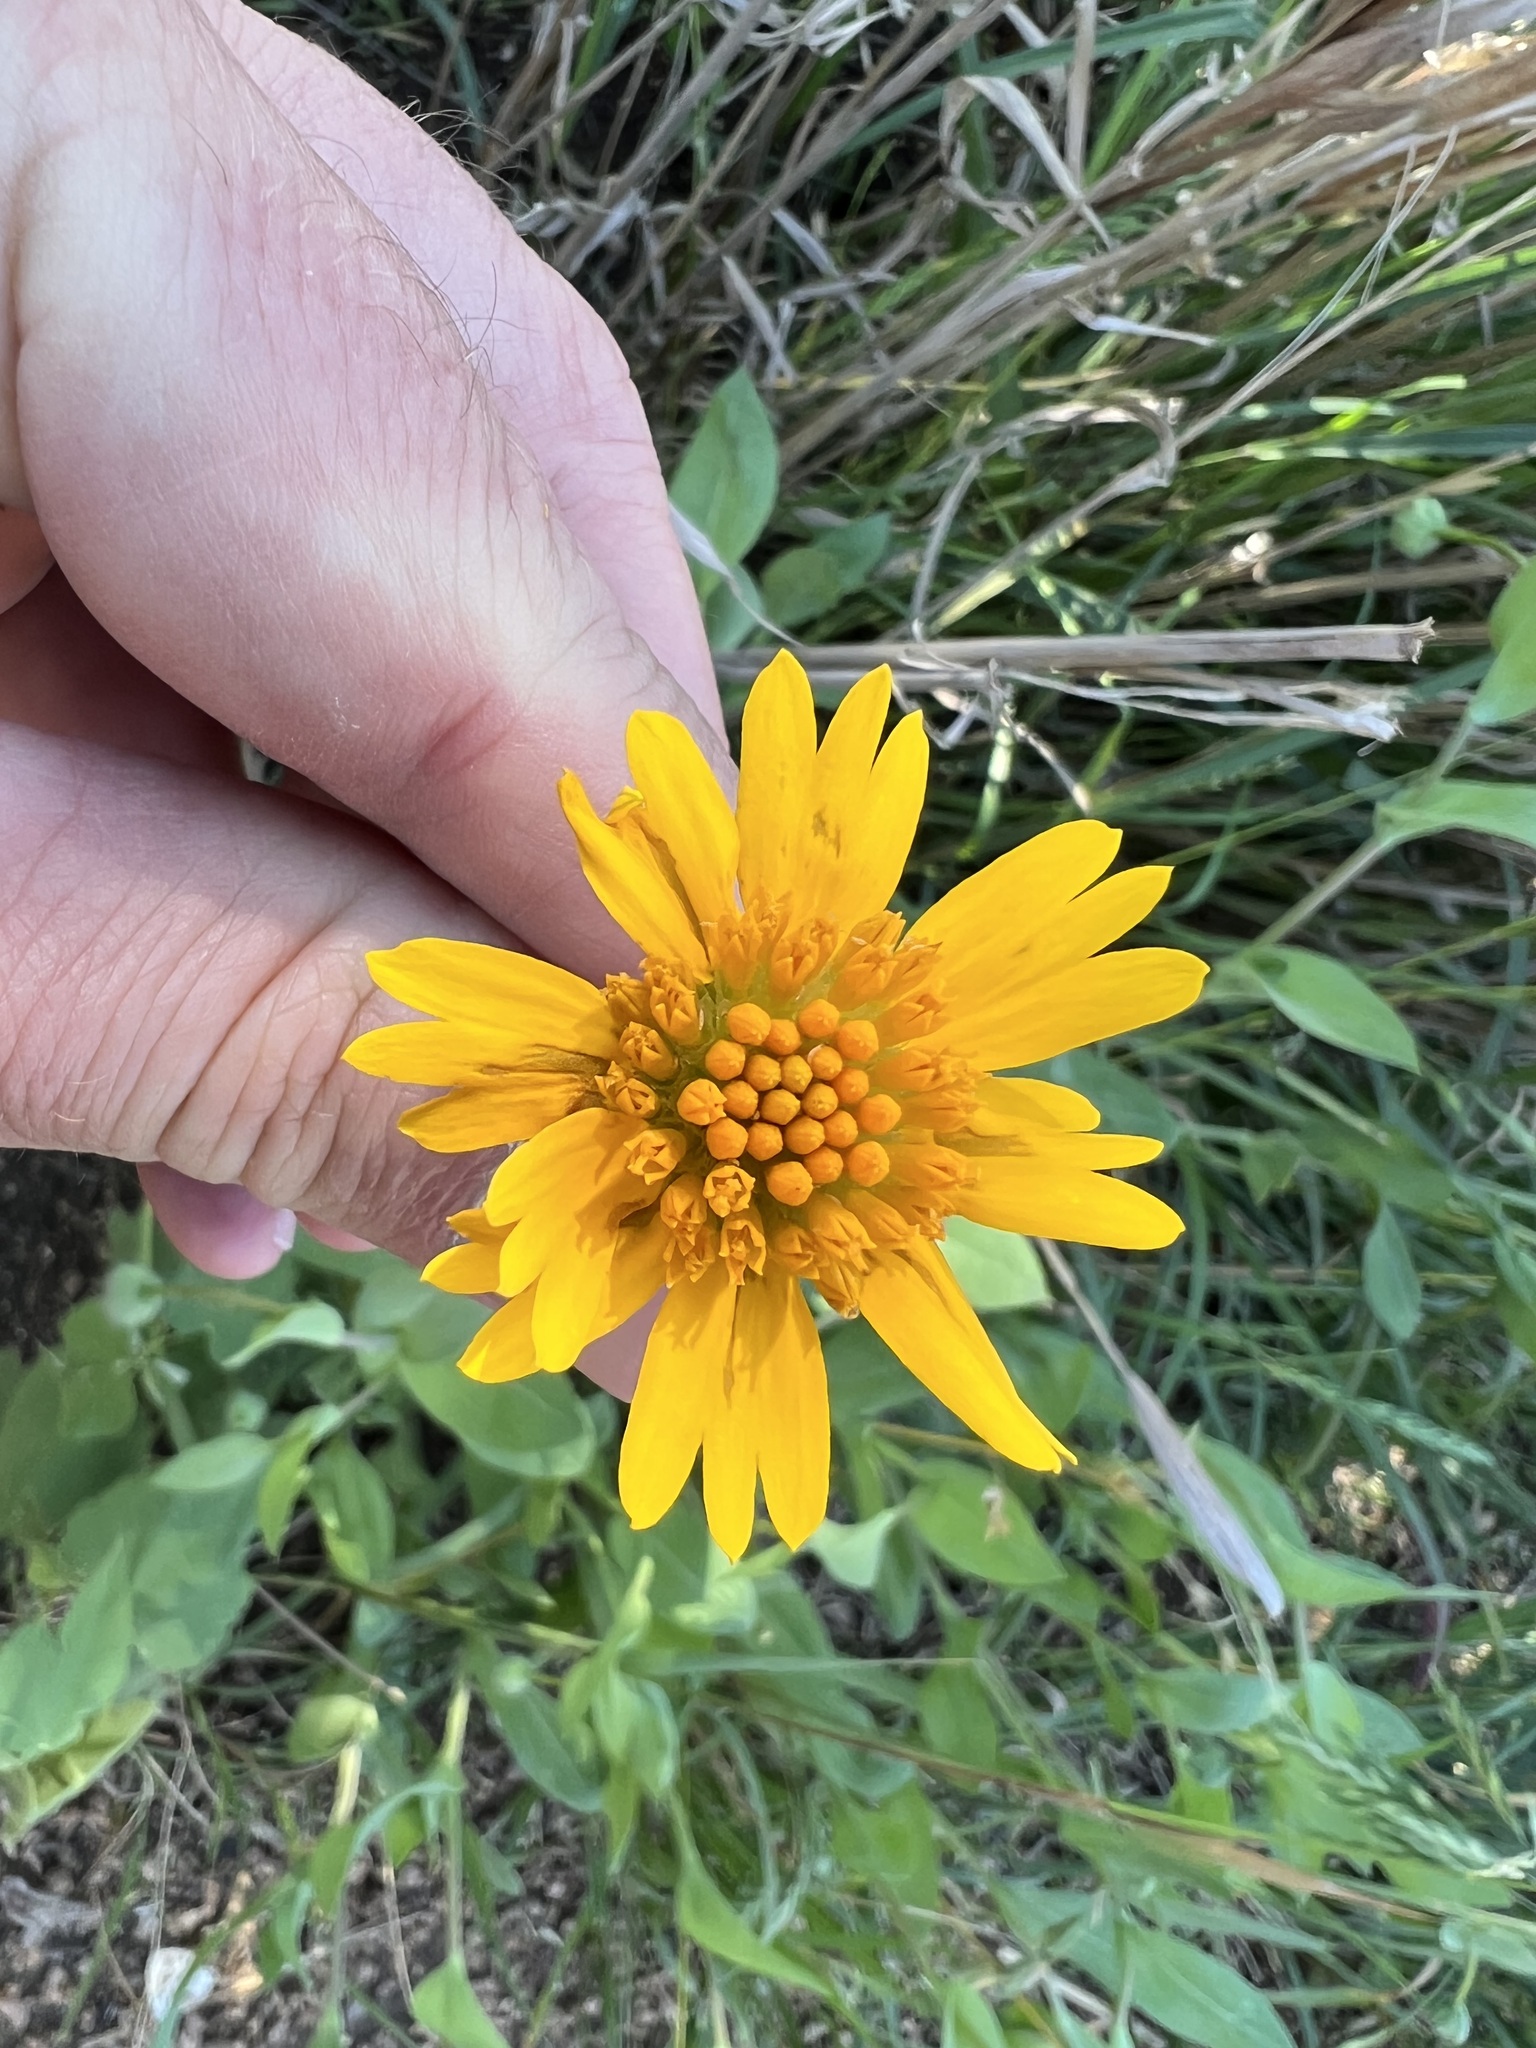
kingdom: Plantae
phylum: Tracheophyta
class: Magnoliopsida
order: Asterales
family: Asteraceae
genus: Amblyolepis
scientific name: Amblyolepis setigera
